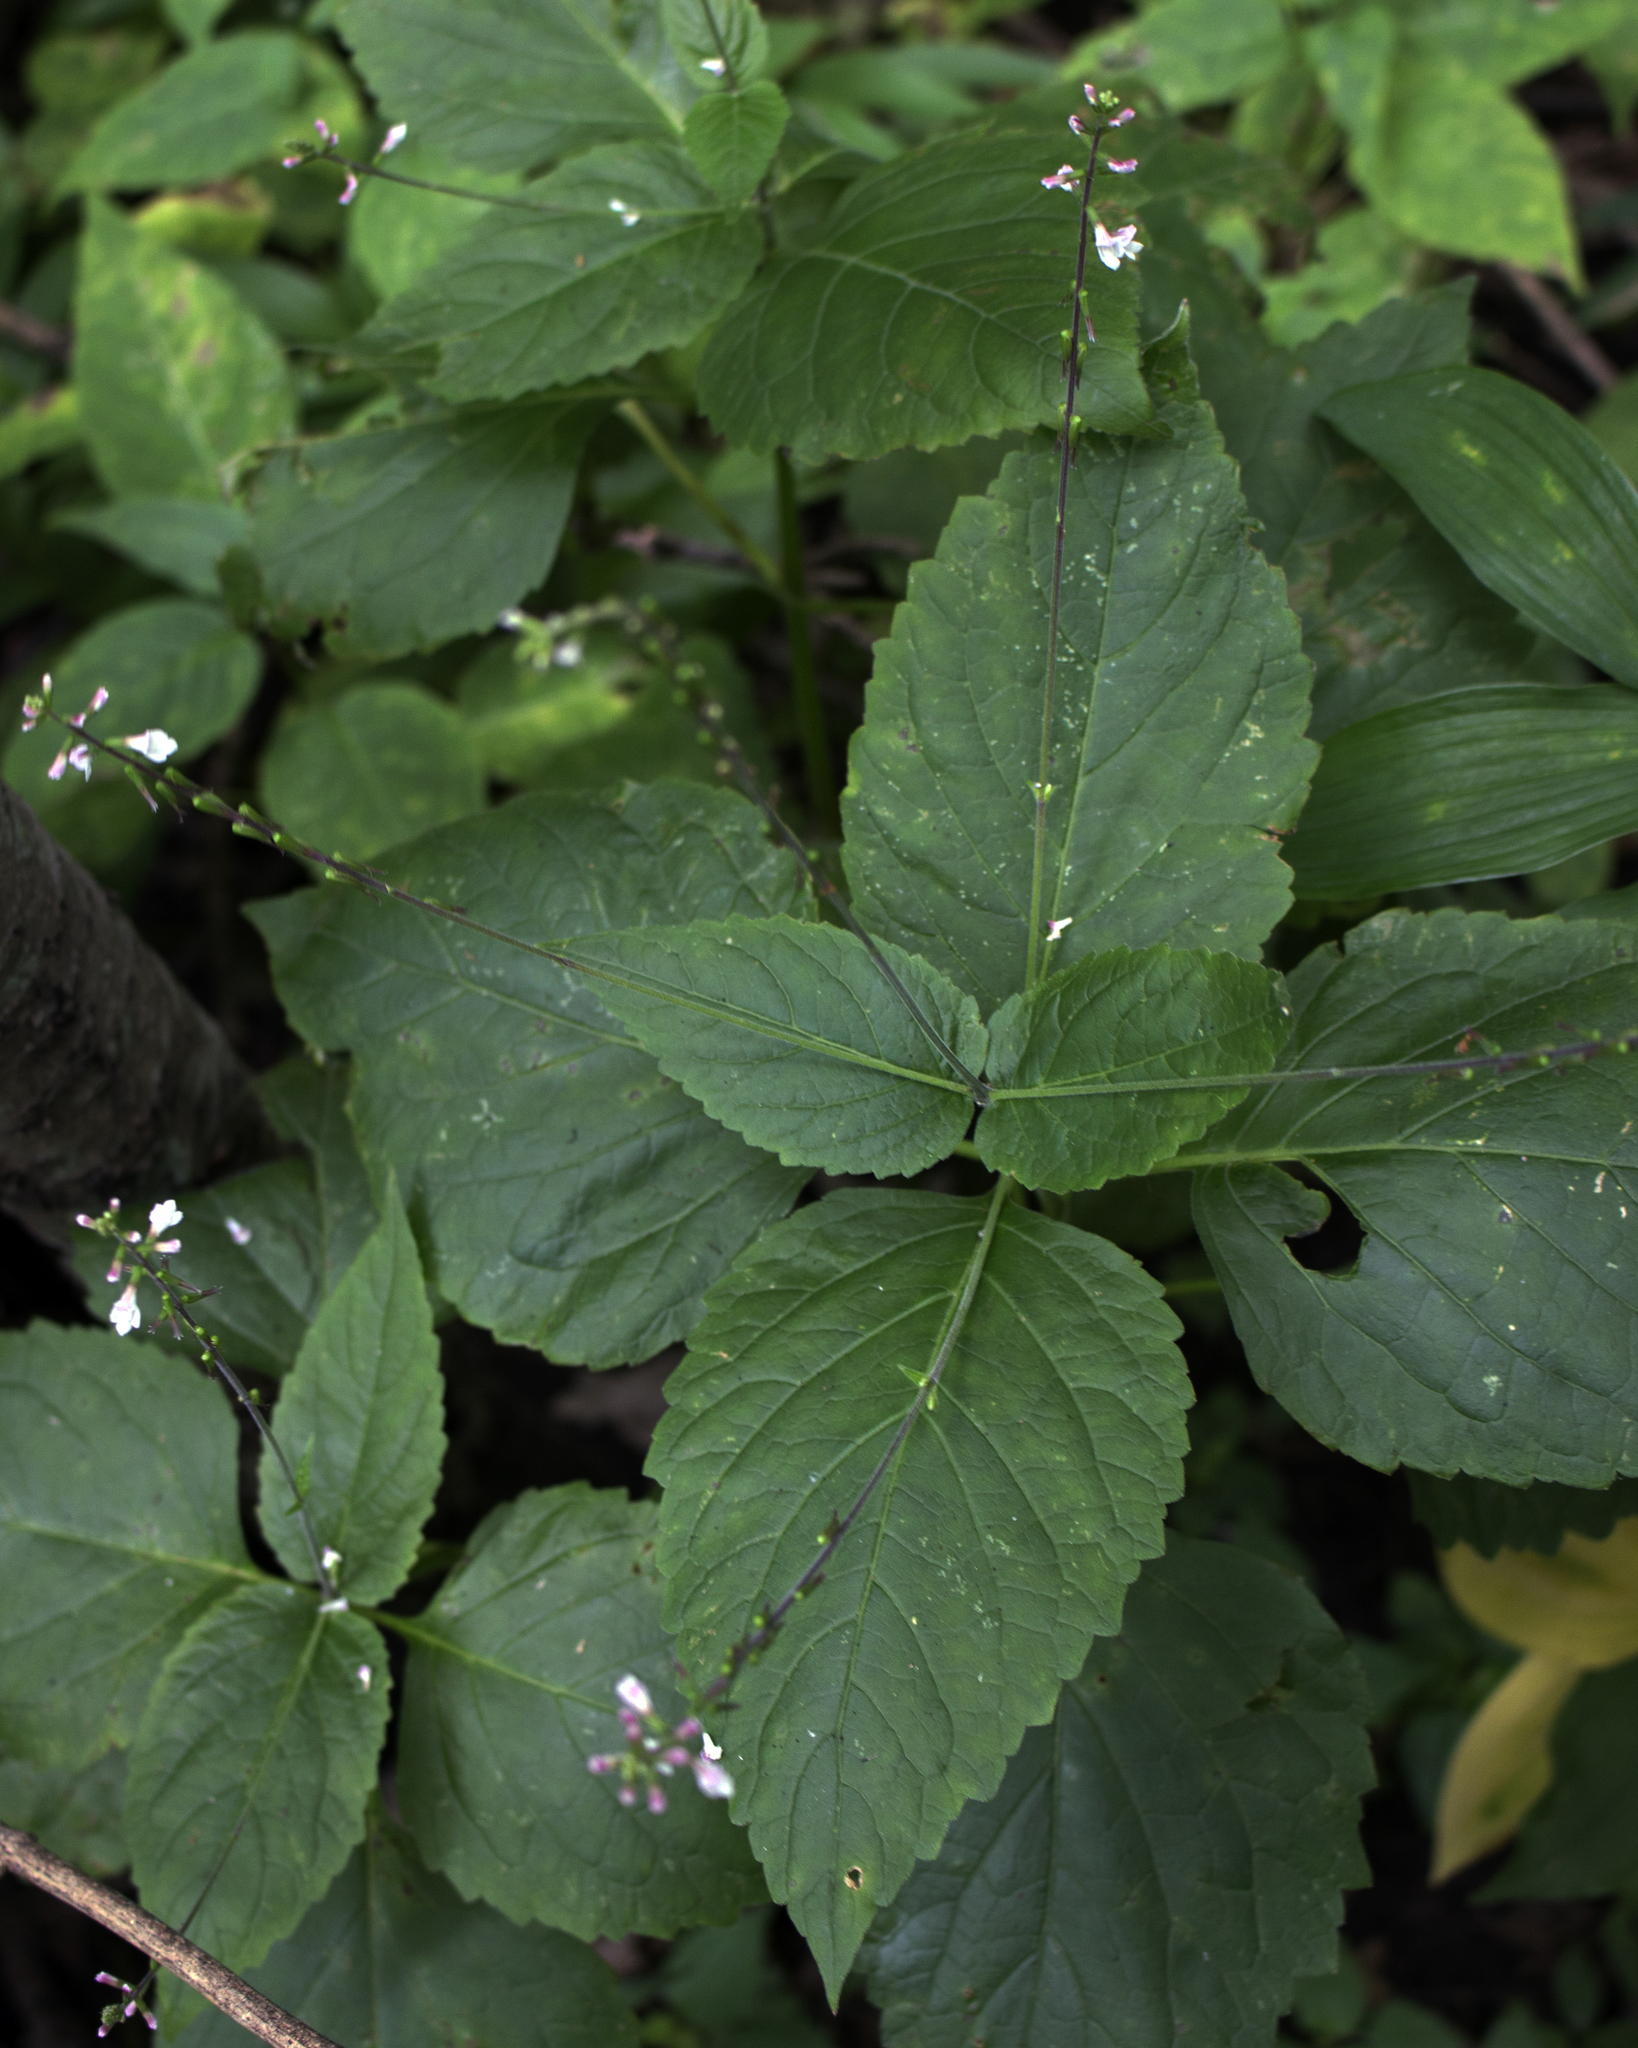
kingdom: Plantae
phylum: Tracheophyta
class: Magnoliopsida
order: Lamiales
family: Phrymaceae
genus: Phryma
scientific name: Phryma leptostachya
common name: American lopseed
